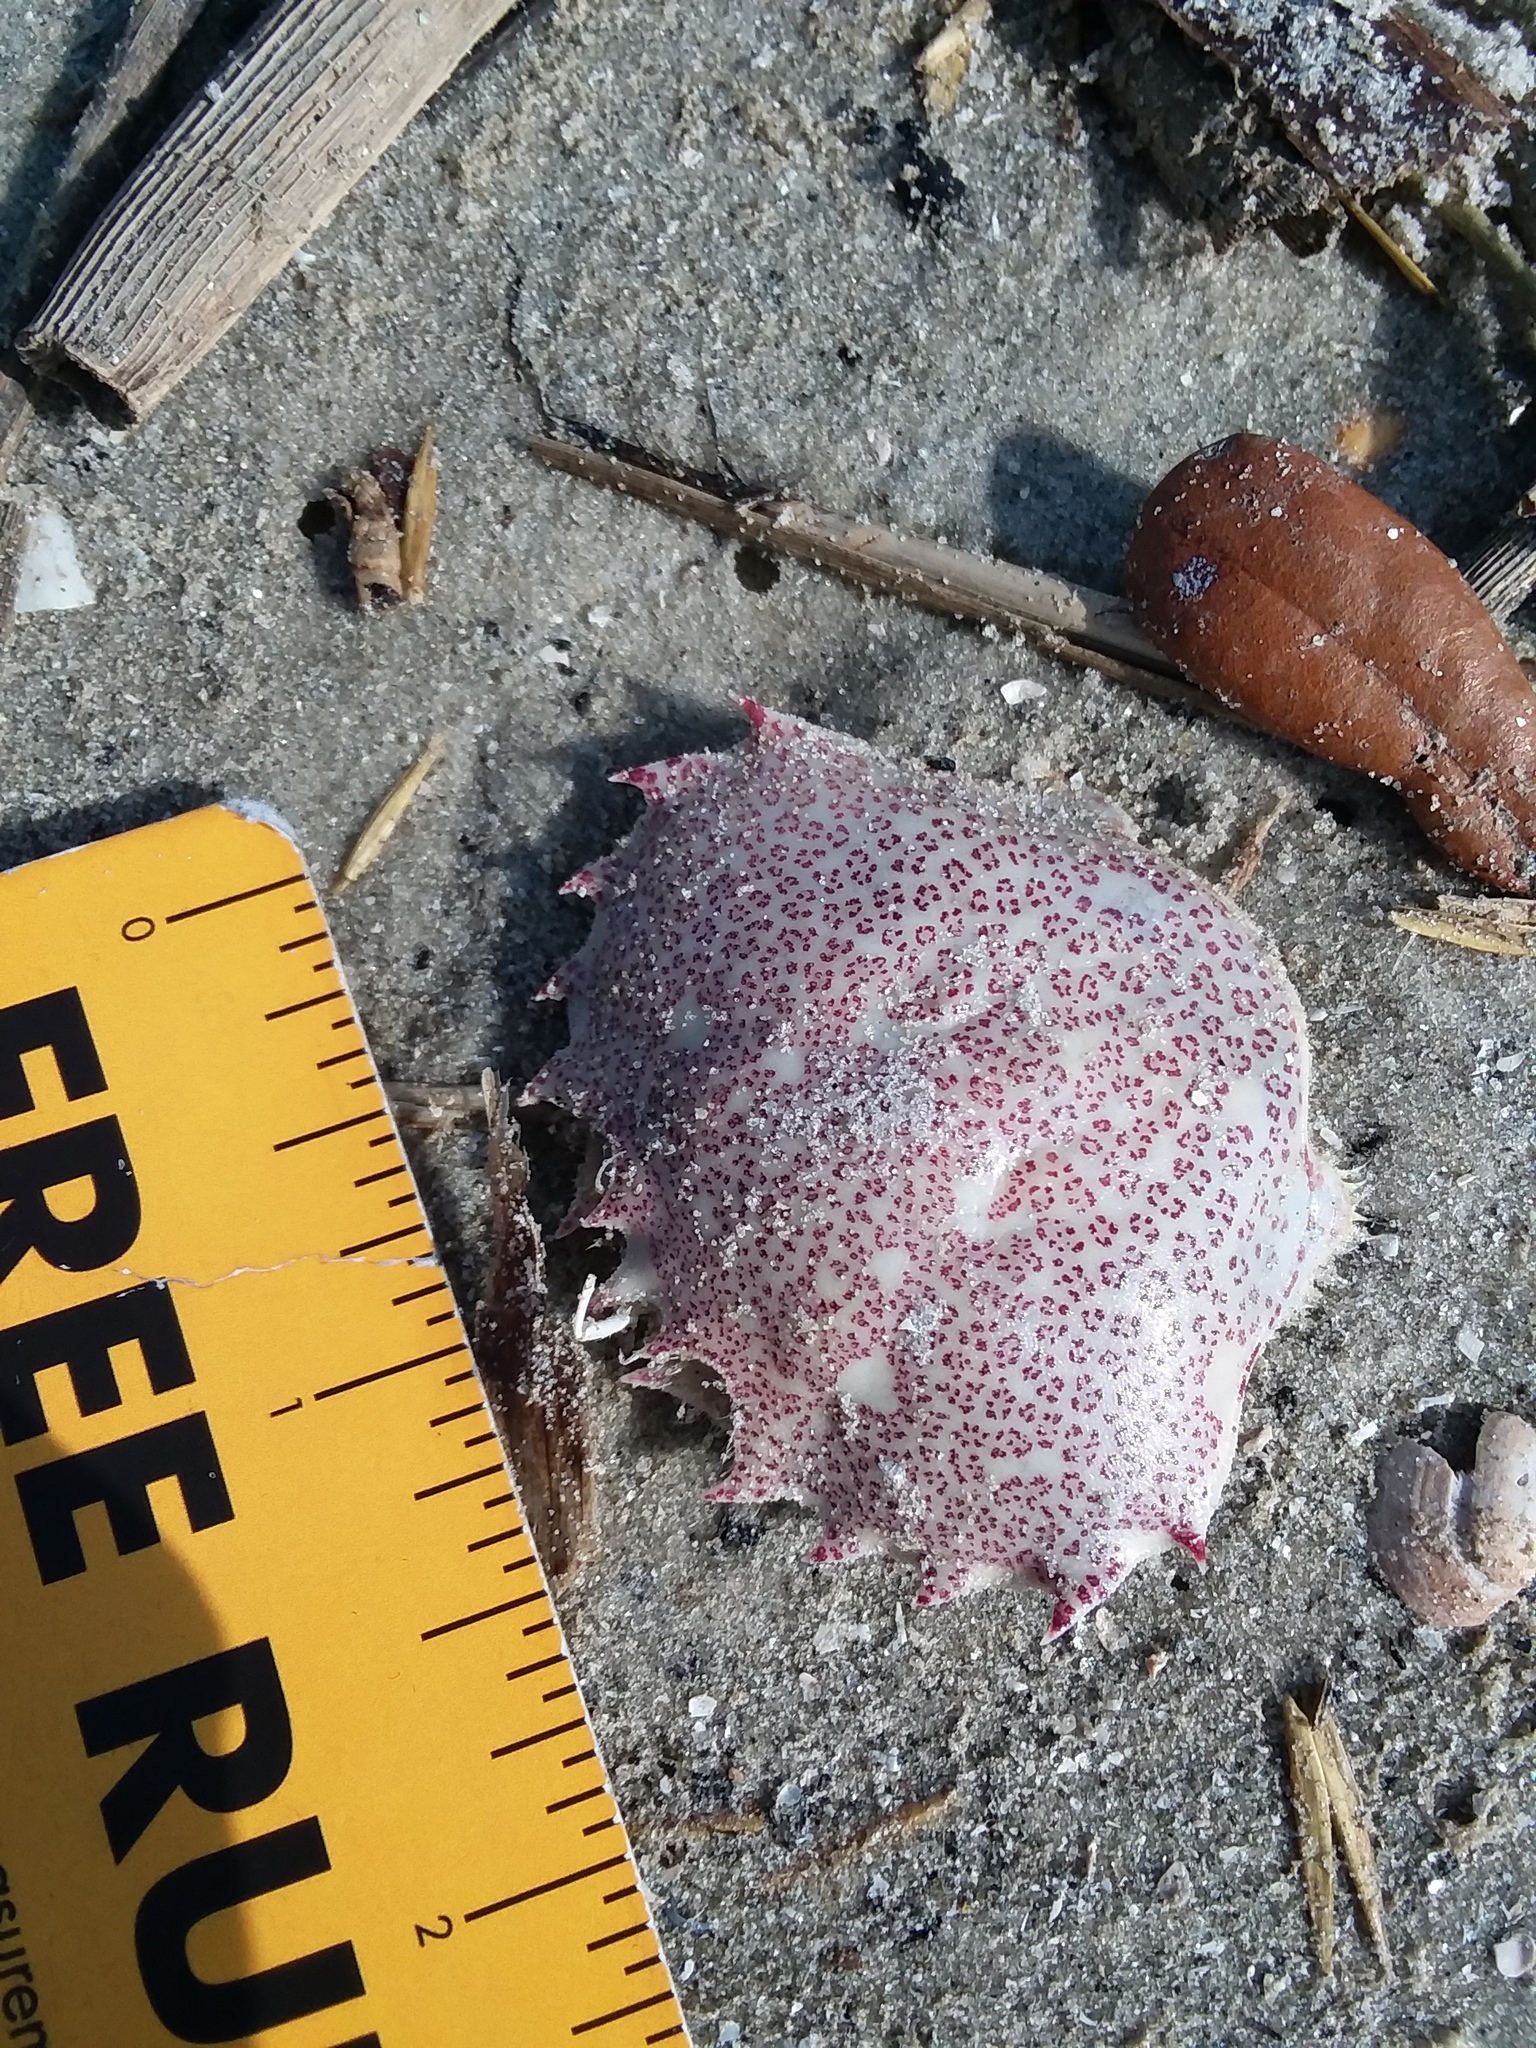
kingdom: Animalia
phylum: Arthropoda
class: Malacostraca
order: Decapoda
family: Ovalipidae
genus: Ovalipes
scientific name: Ovalipes ocellatus
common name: Lady crab
